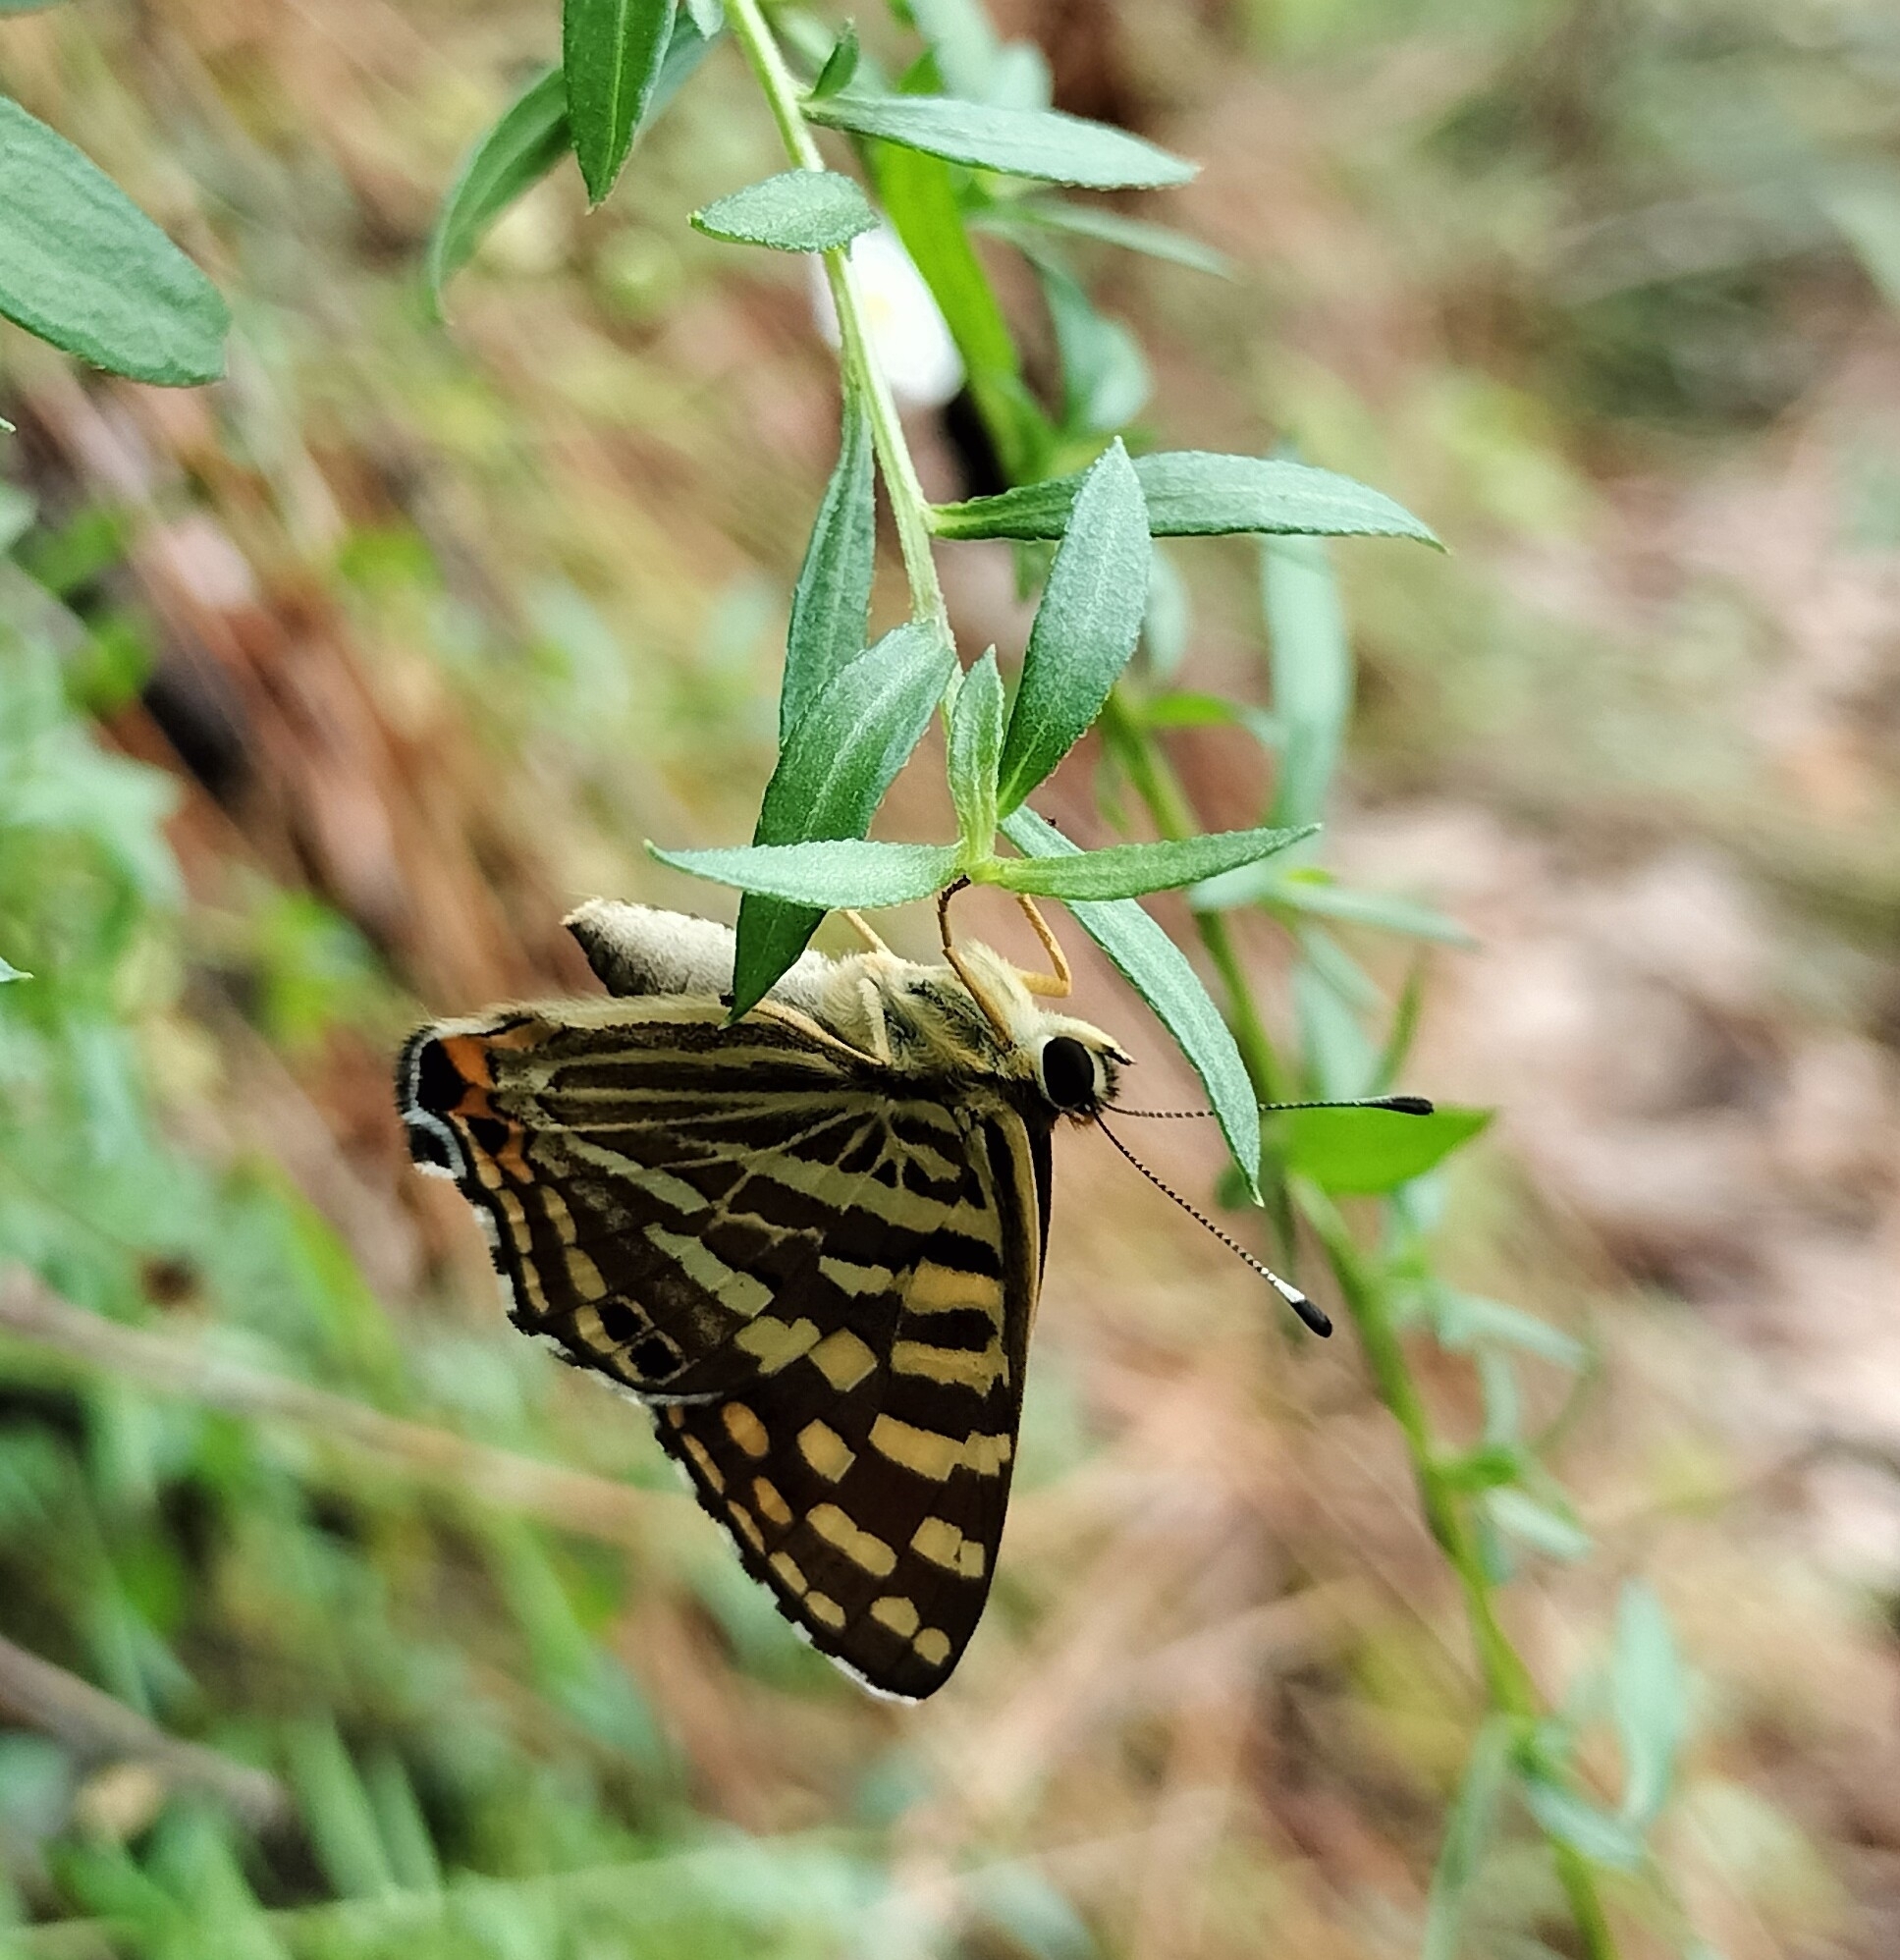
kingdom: Animalia
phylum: Arthropoda
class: Insecta
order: Lepidoptera
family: Lycaenidae
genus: Dodona
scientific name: Dodona durga
